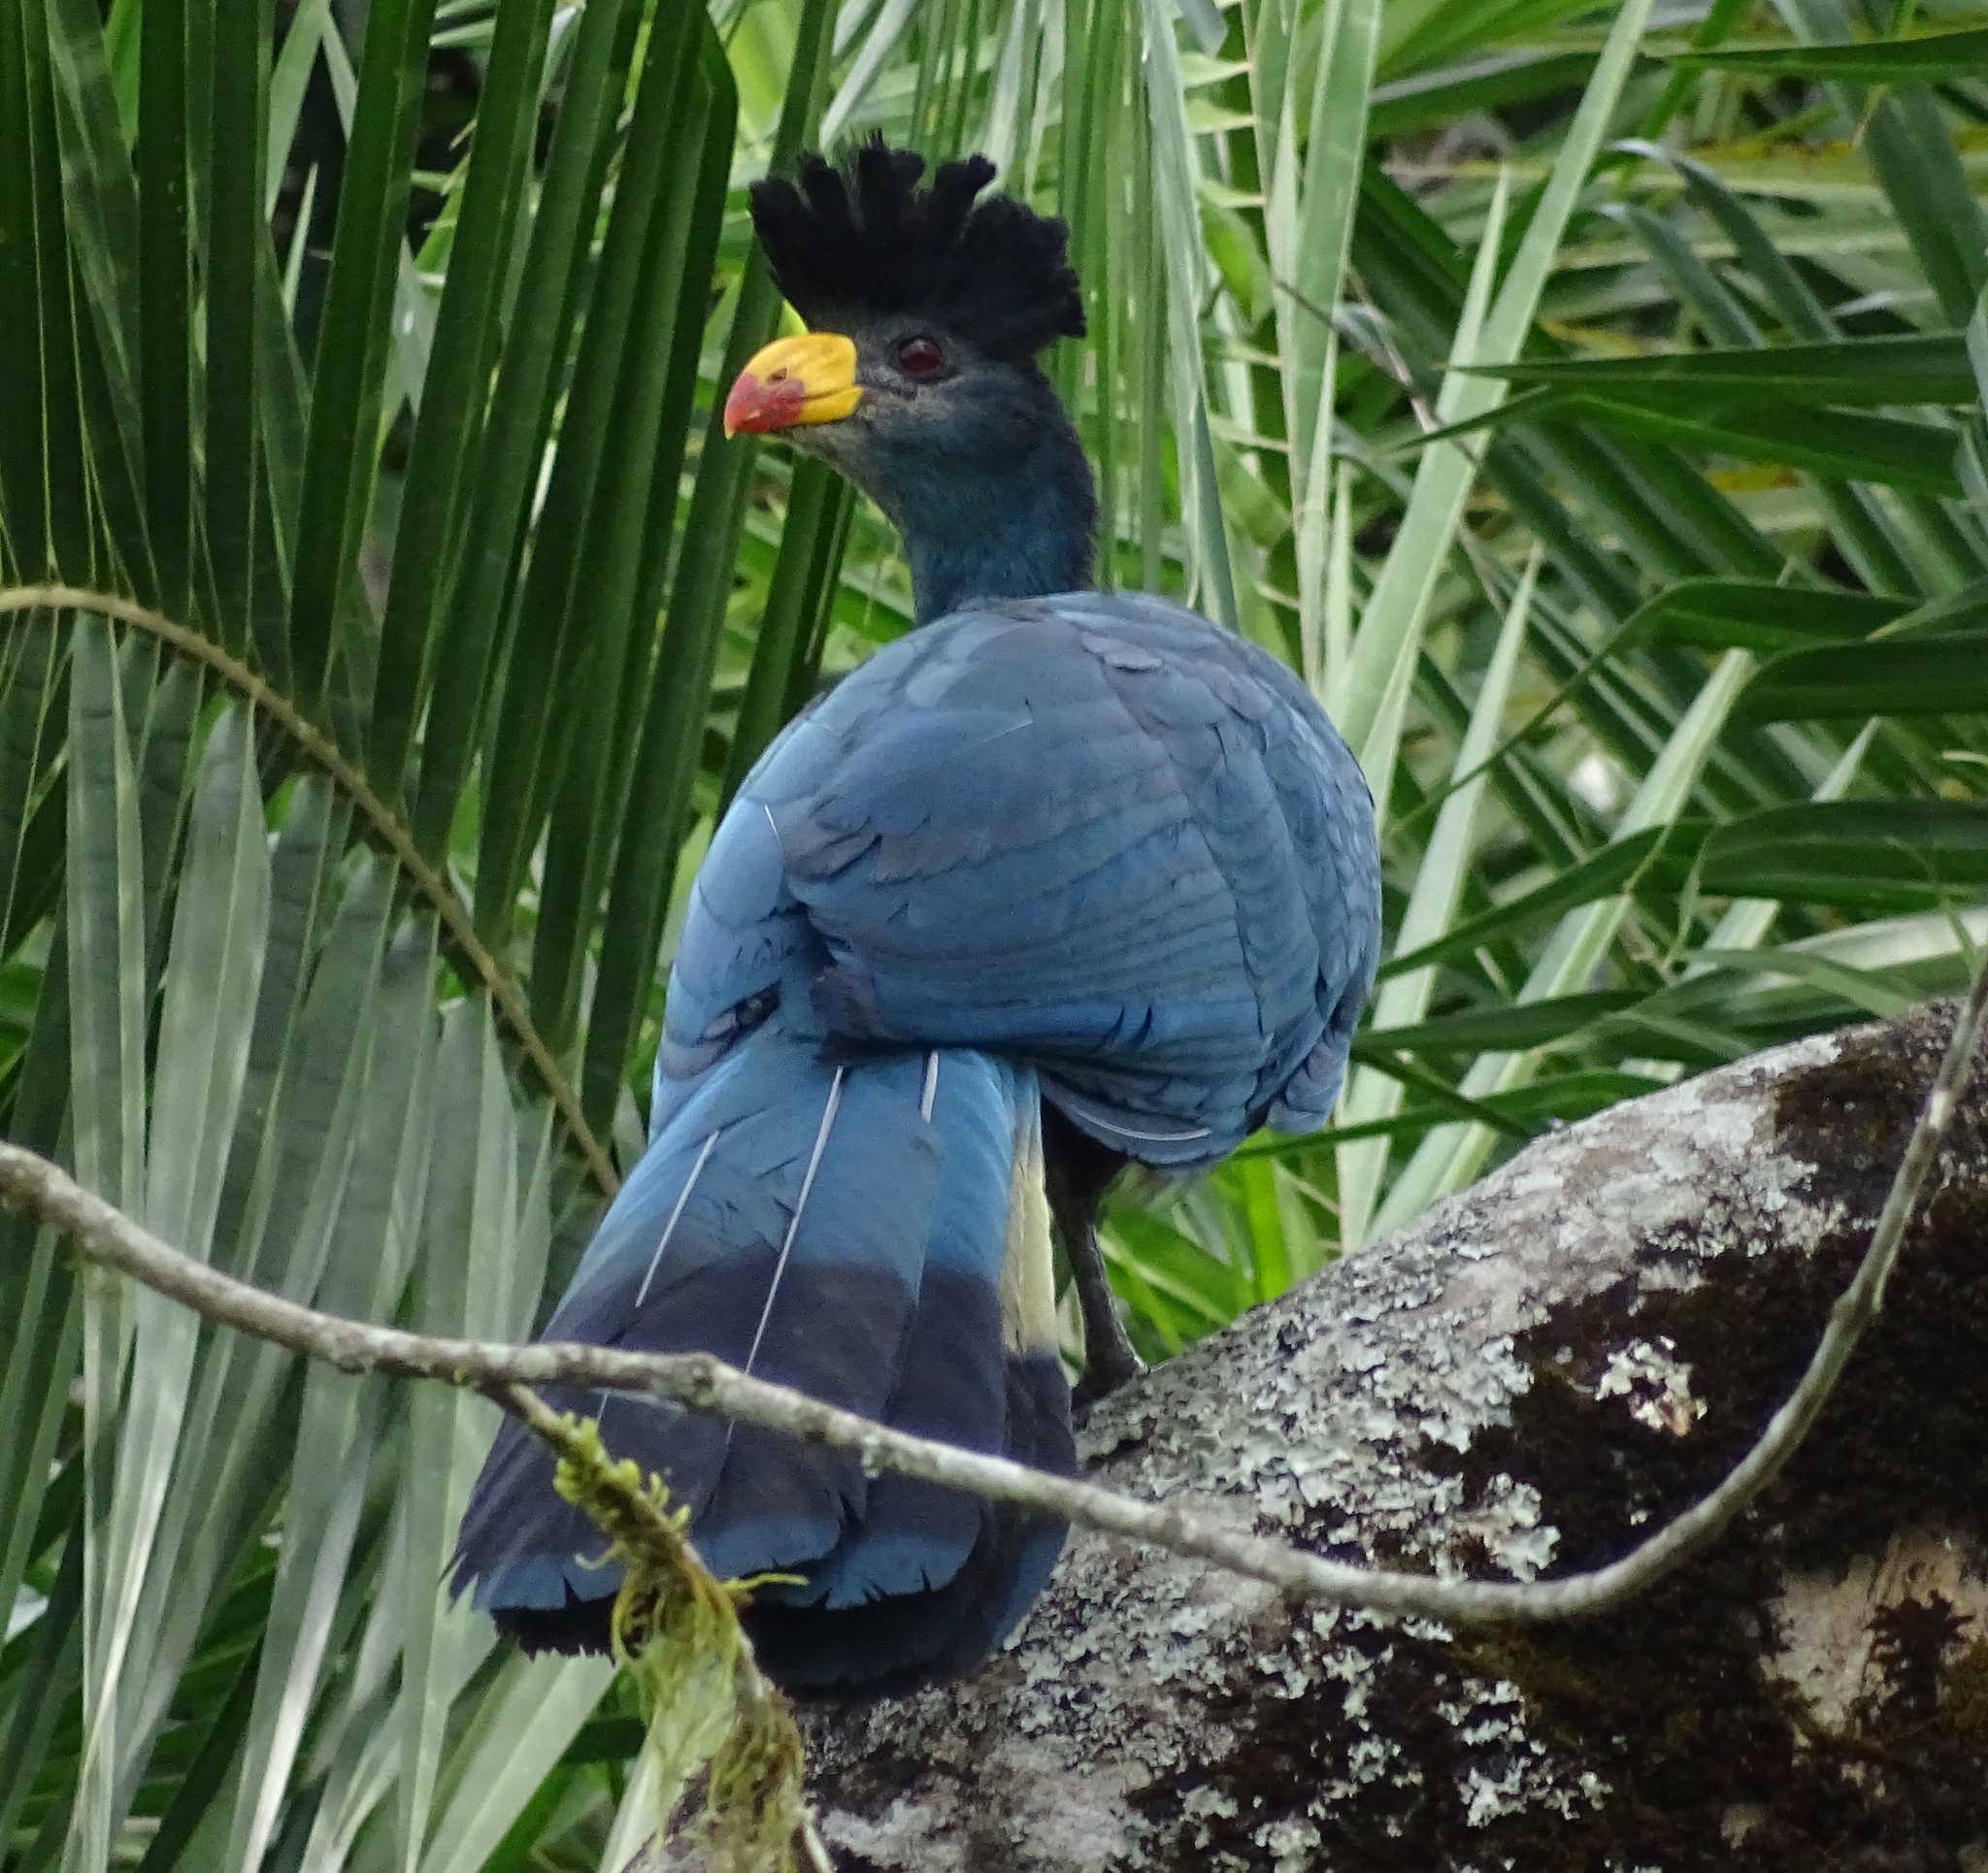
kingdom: Animalia
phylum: Chordata
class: Aves
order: Musophagiformes
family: Musophagidae
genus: Corythaeola
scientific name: Corythaeola cristata
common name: Great blue turaco
